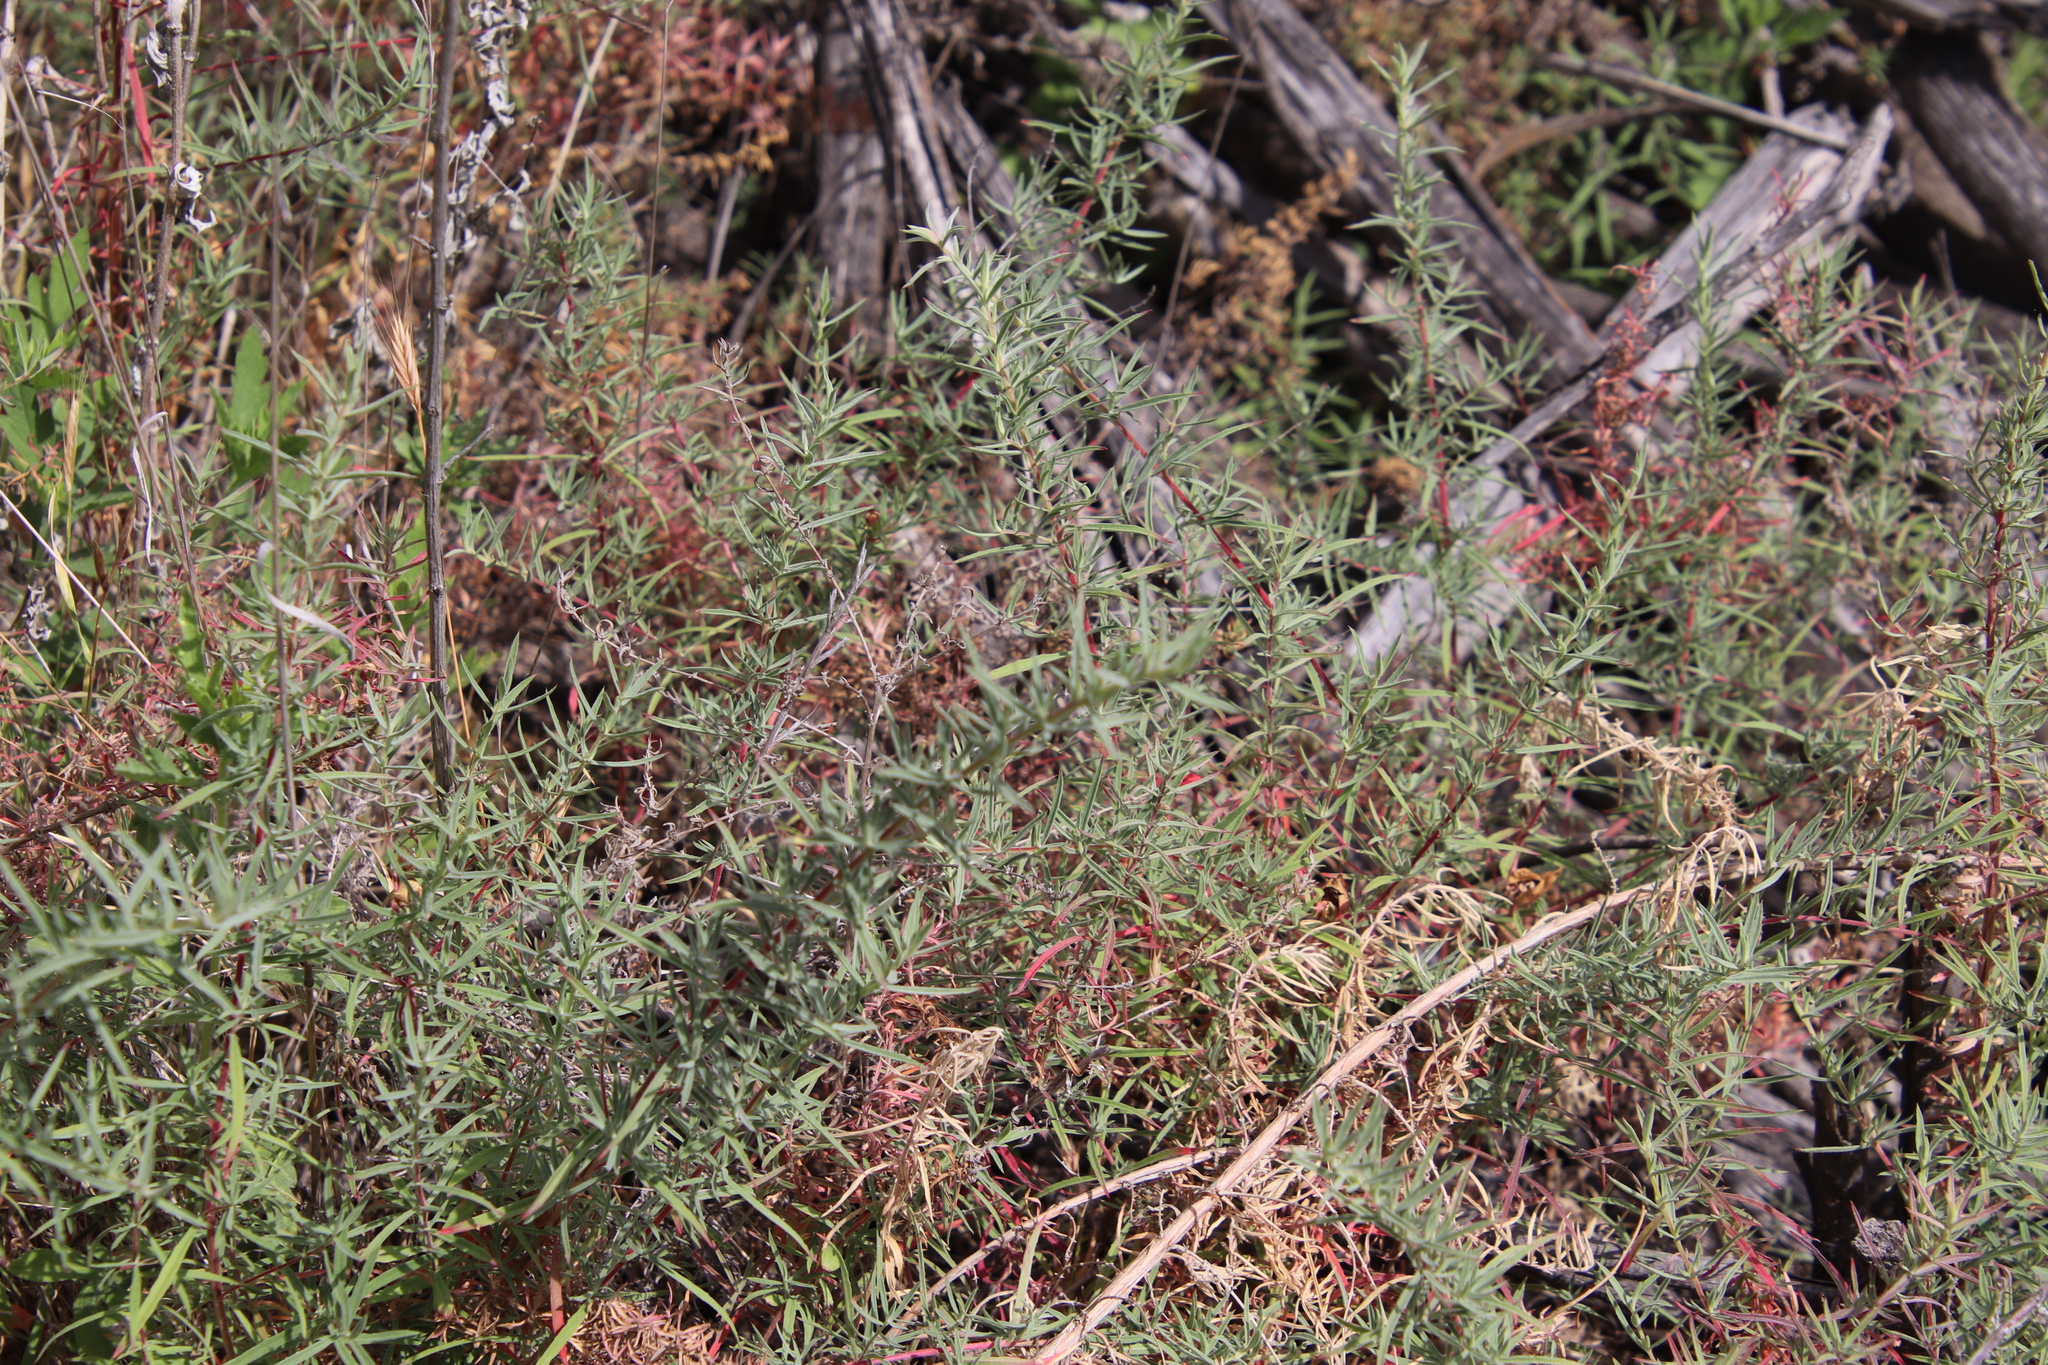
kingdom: Plantae
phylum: Tracheophyta
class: Magnoliopsida
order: Myrtales
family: Onagraceae
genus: Epilobium
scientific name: Epilobium canum
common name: California-fuchsia
